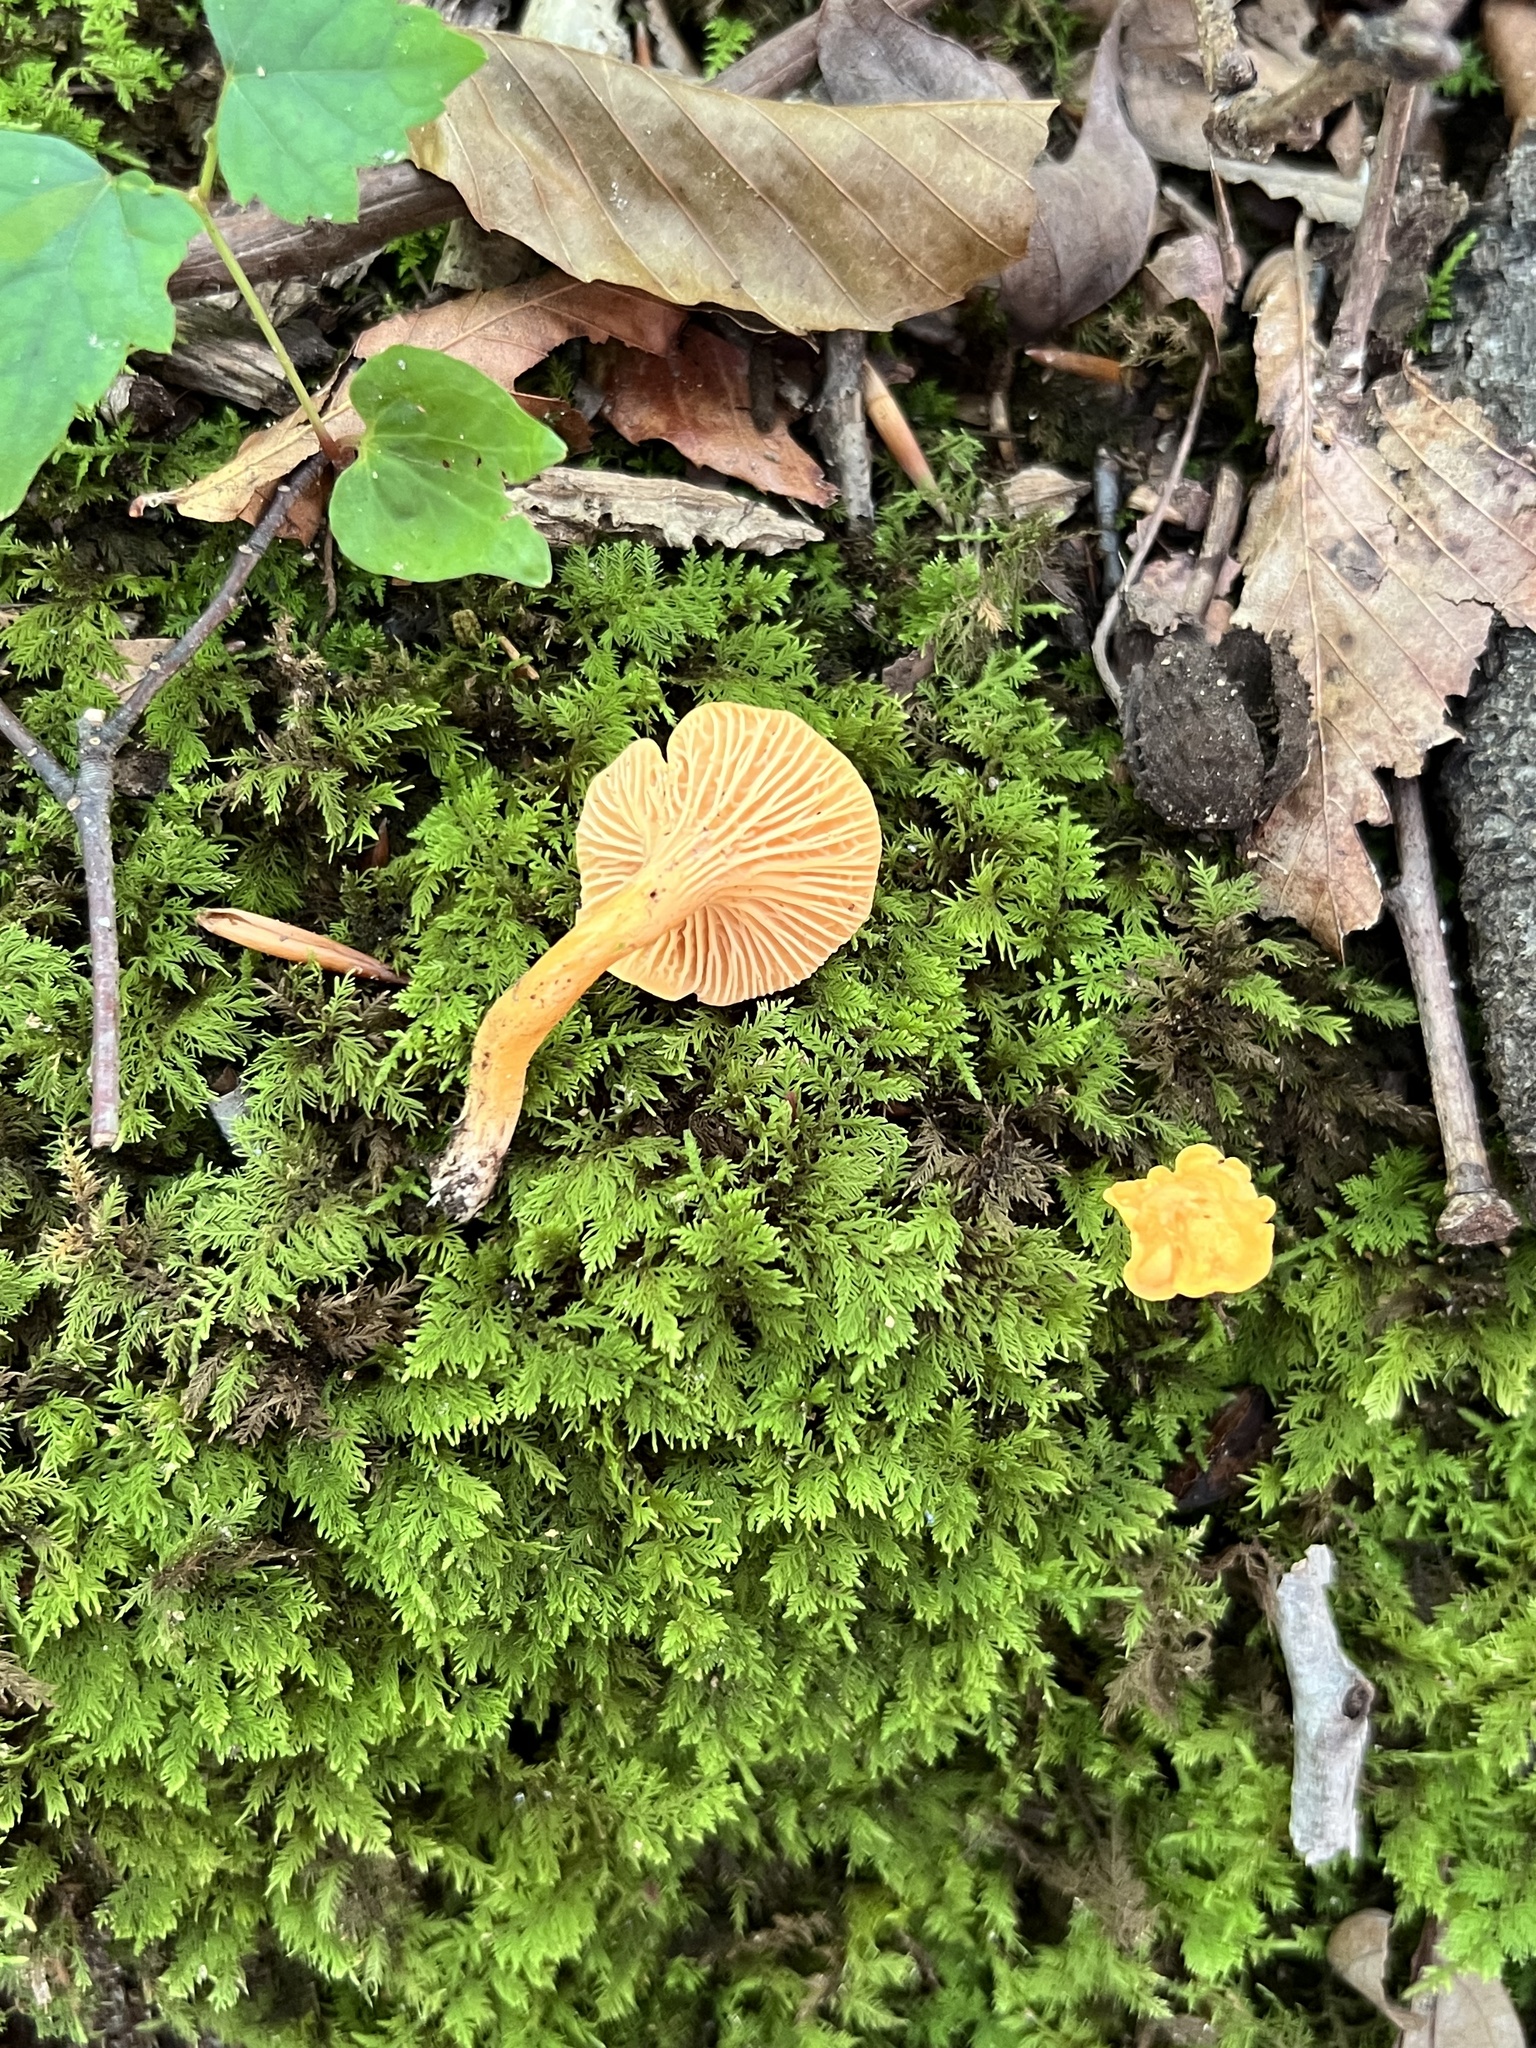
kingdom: Fungi
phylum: Basidiomycota
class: Agaricomycetes
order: Cantharellales
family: Hydnaceae
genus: Cantharellus
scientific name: Cantharellus persicinus
